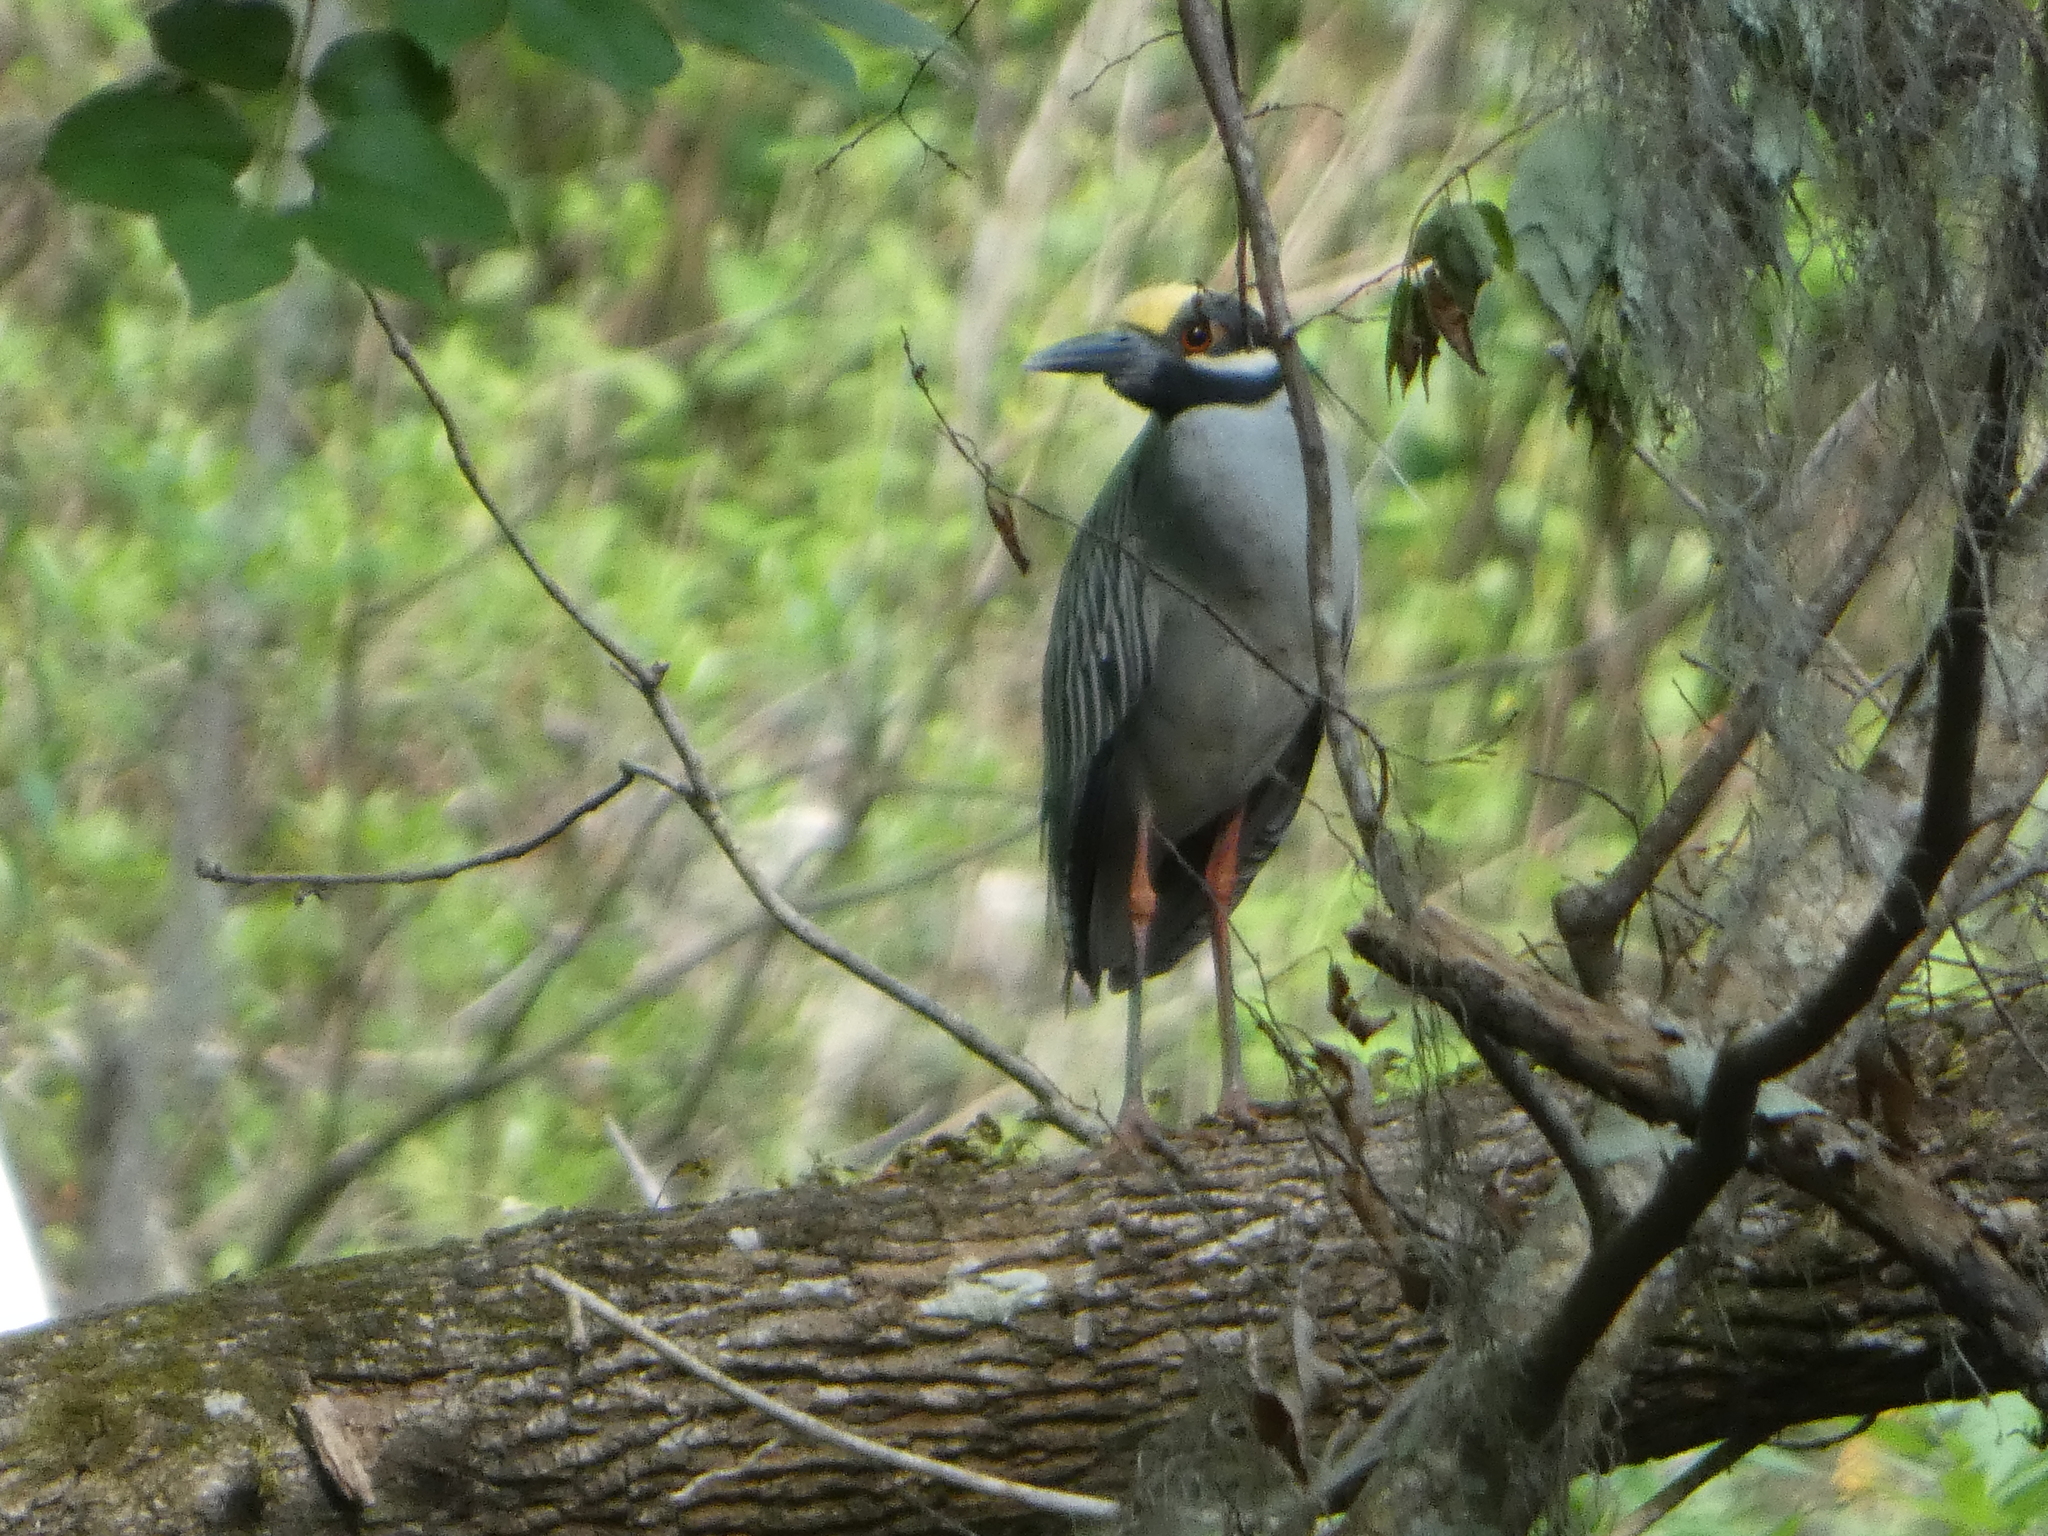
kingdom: Animalia
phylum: Chordata
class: Aves
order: Pelecaniformes
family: Ardeidae
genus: Nyctanassa
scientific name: Nyctanassa violacea
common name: Yellow-crowned night heron
